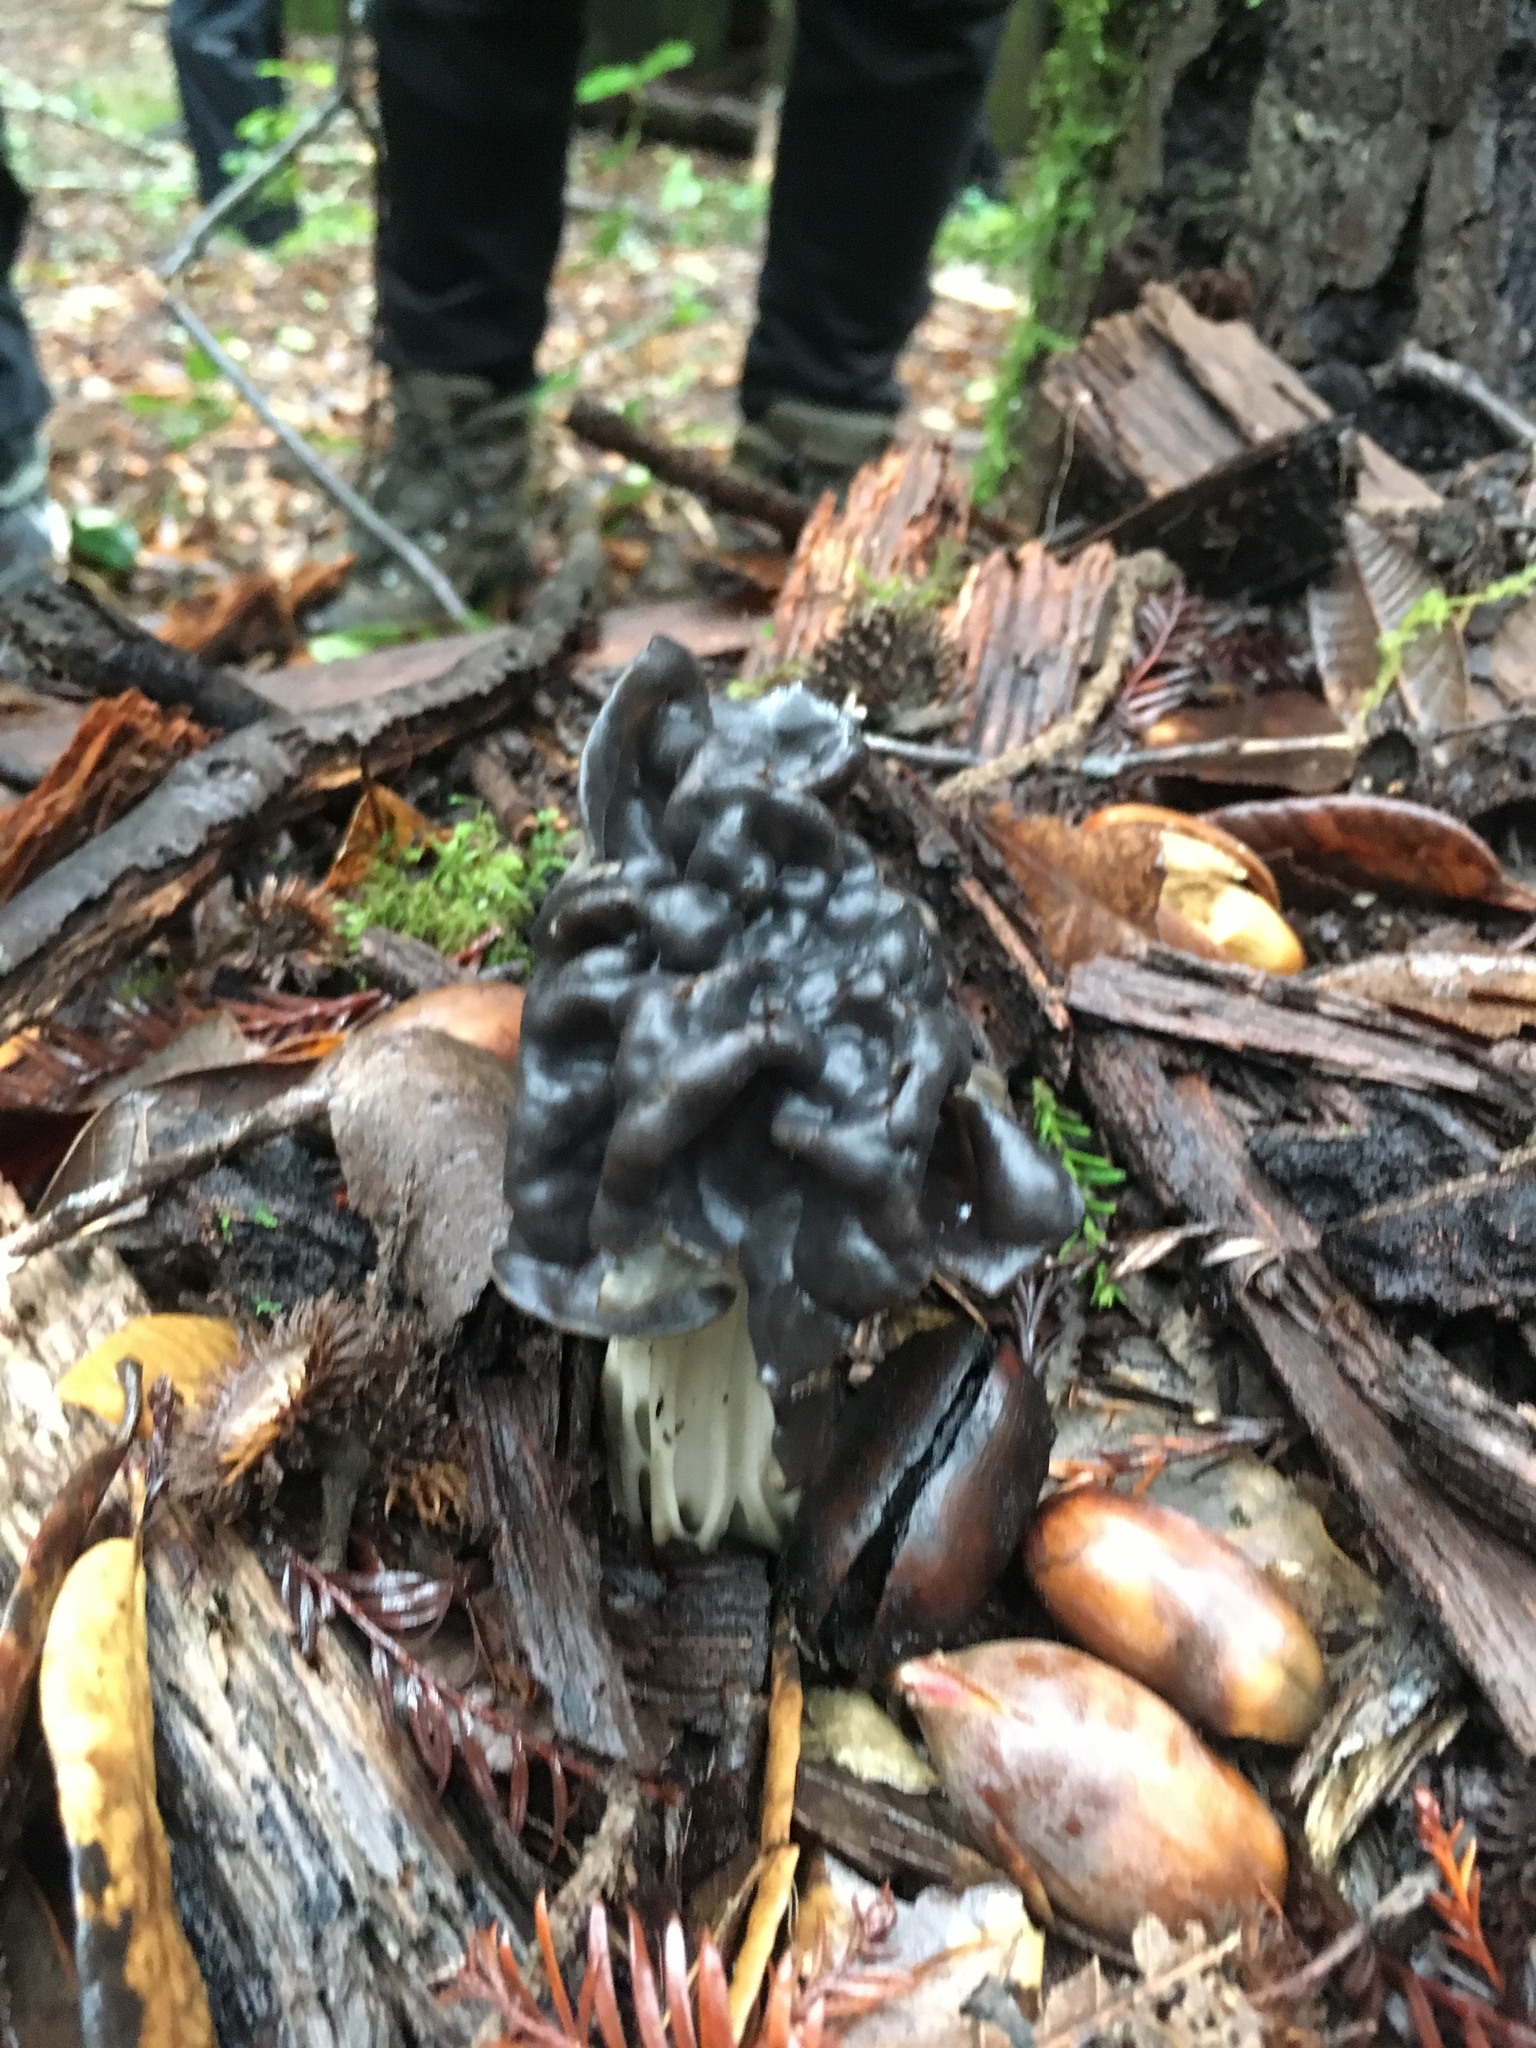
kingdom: Fungi
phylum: Ascomycota
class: Pezizomycetes
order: Pezizales
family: Helvellaceae
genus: Helvella
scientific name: Helvella dryophila
